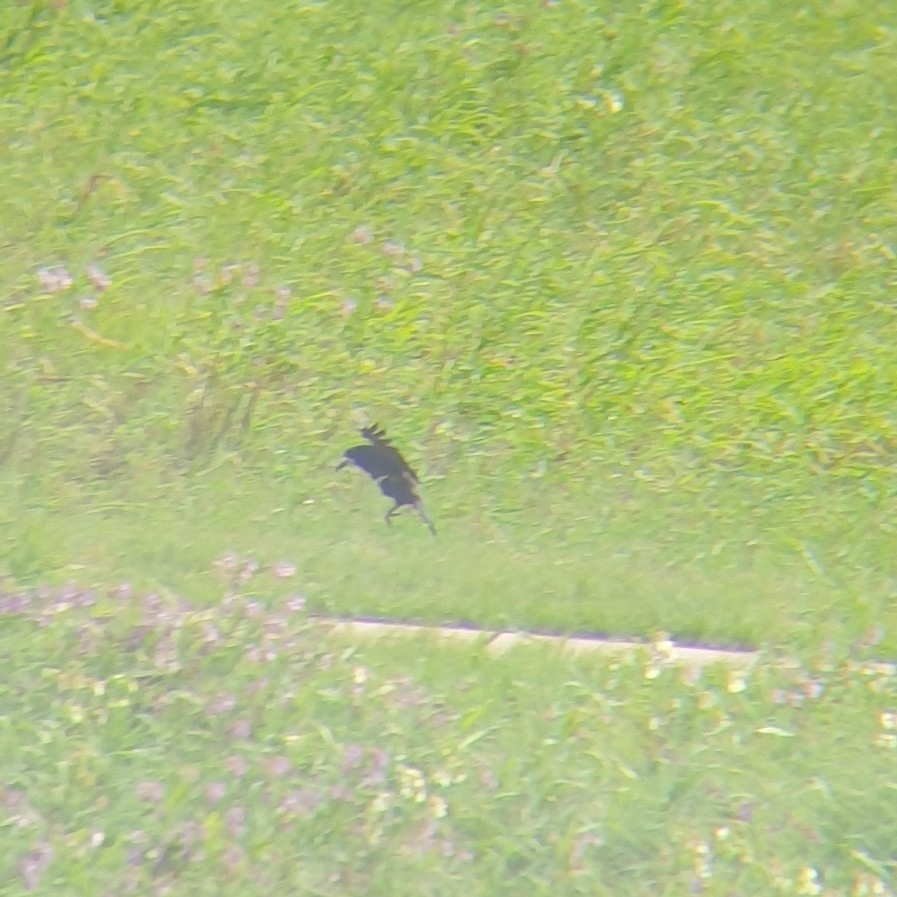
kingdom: Animalia
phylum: Chordata
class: Aves
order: Passeriformes
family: Corvidae
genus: Corvus
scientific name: Corvus frugilegus
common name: Rook
